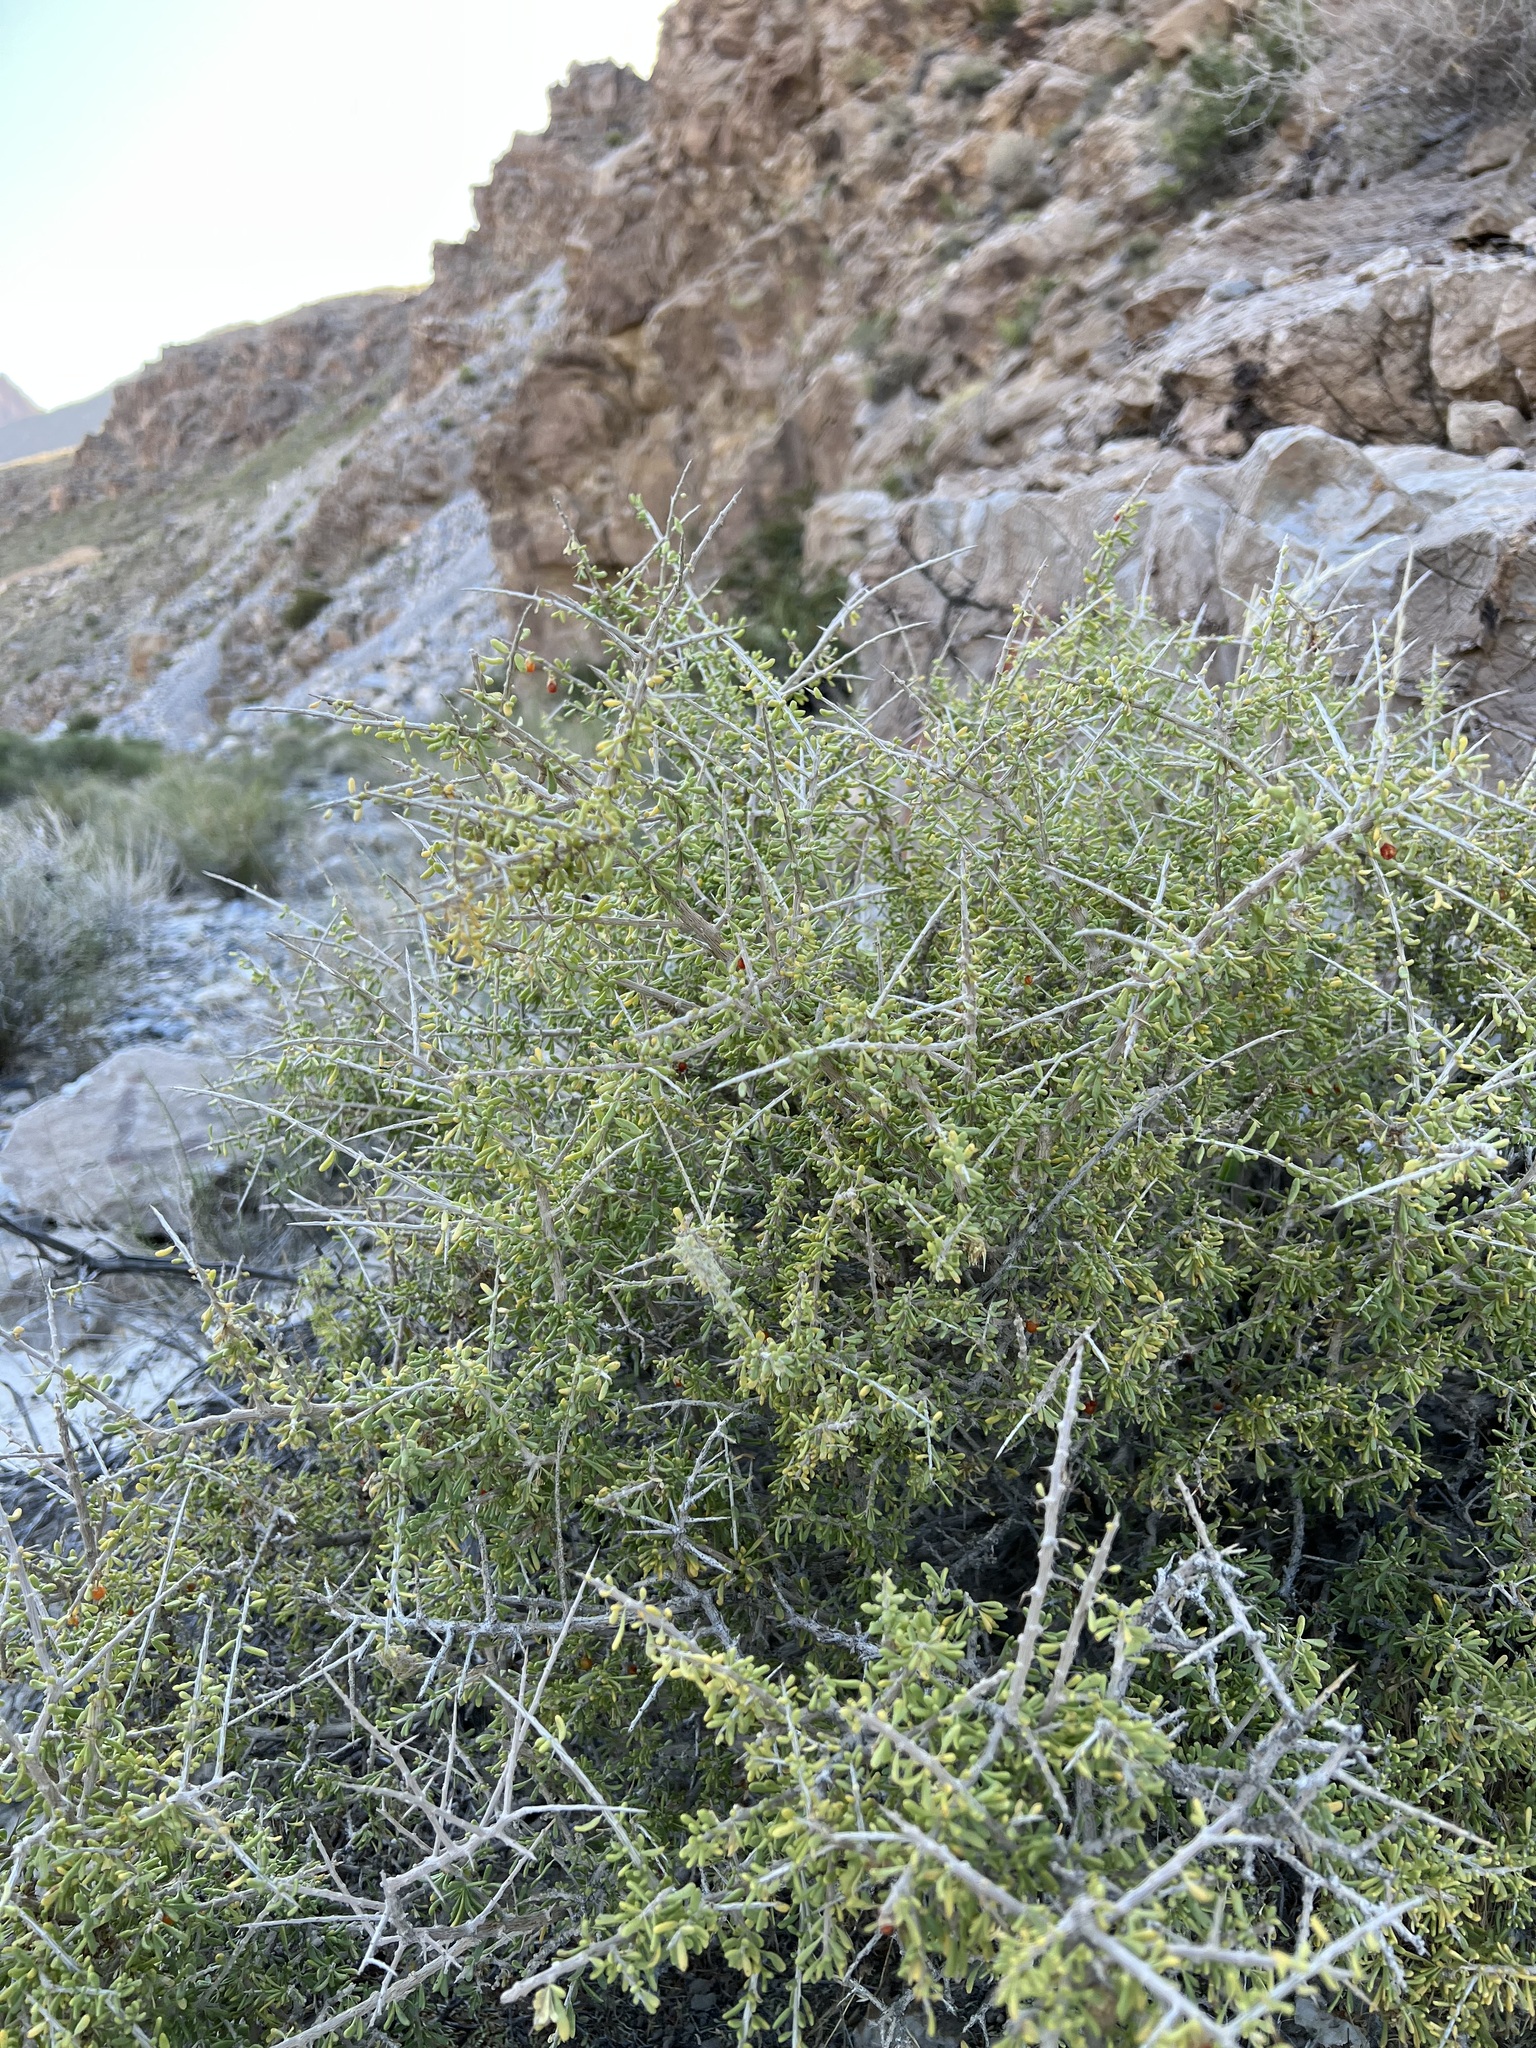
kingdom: Plantae
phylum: Tracheophyta
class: Magnoliopsida
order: Solanales
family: Solanaceae
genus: Lycium
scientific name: Lycium andersonii
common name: Water-jacket
